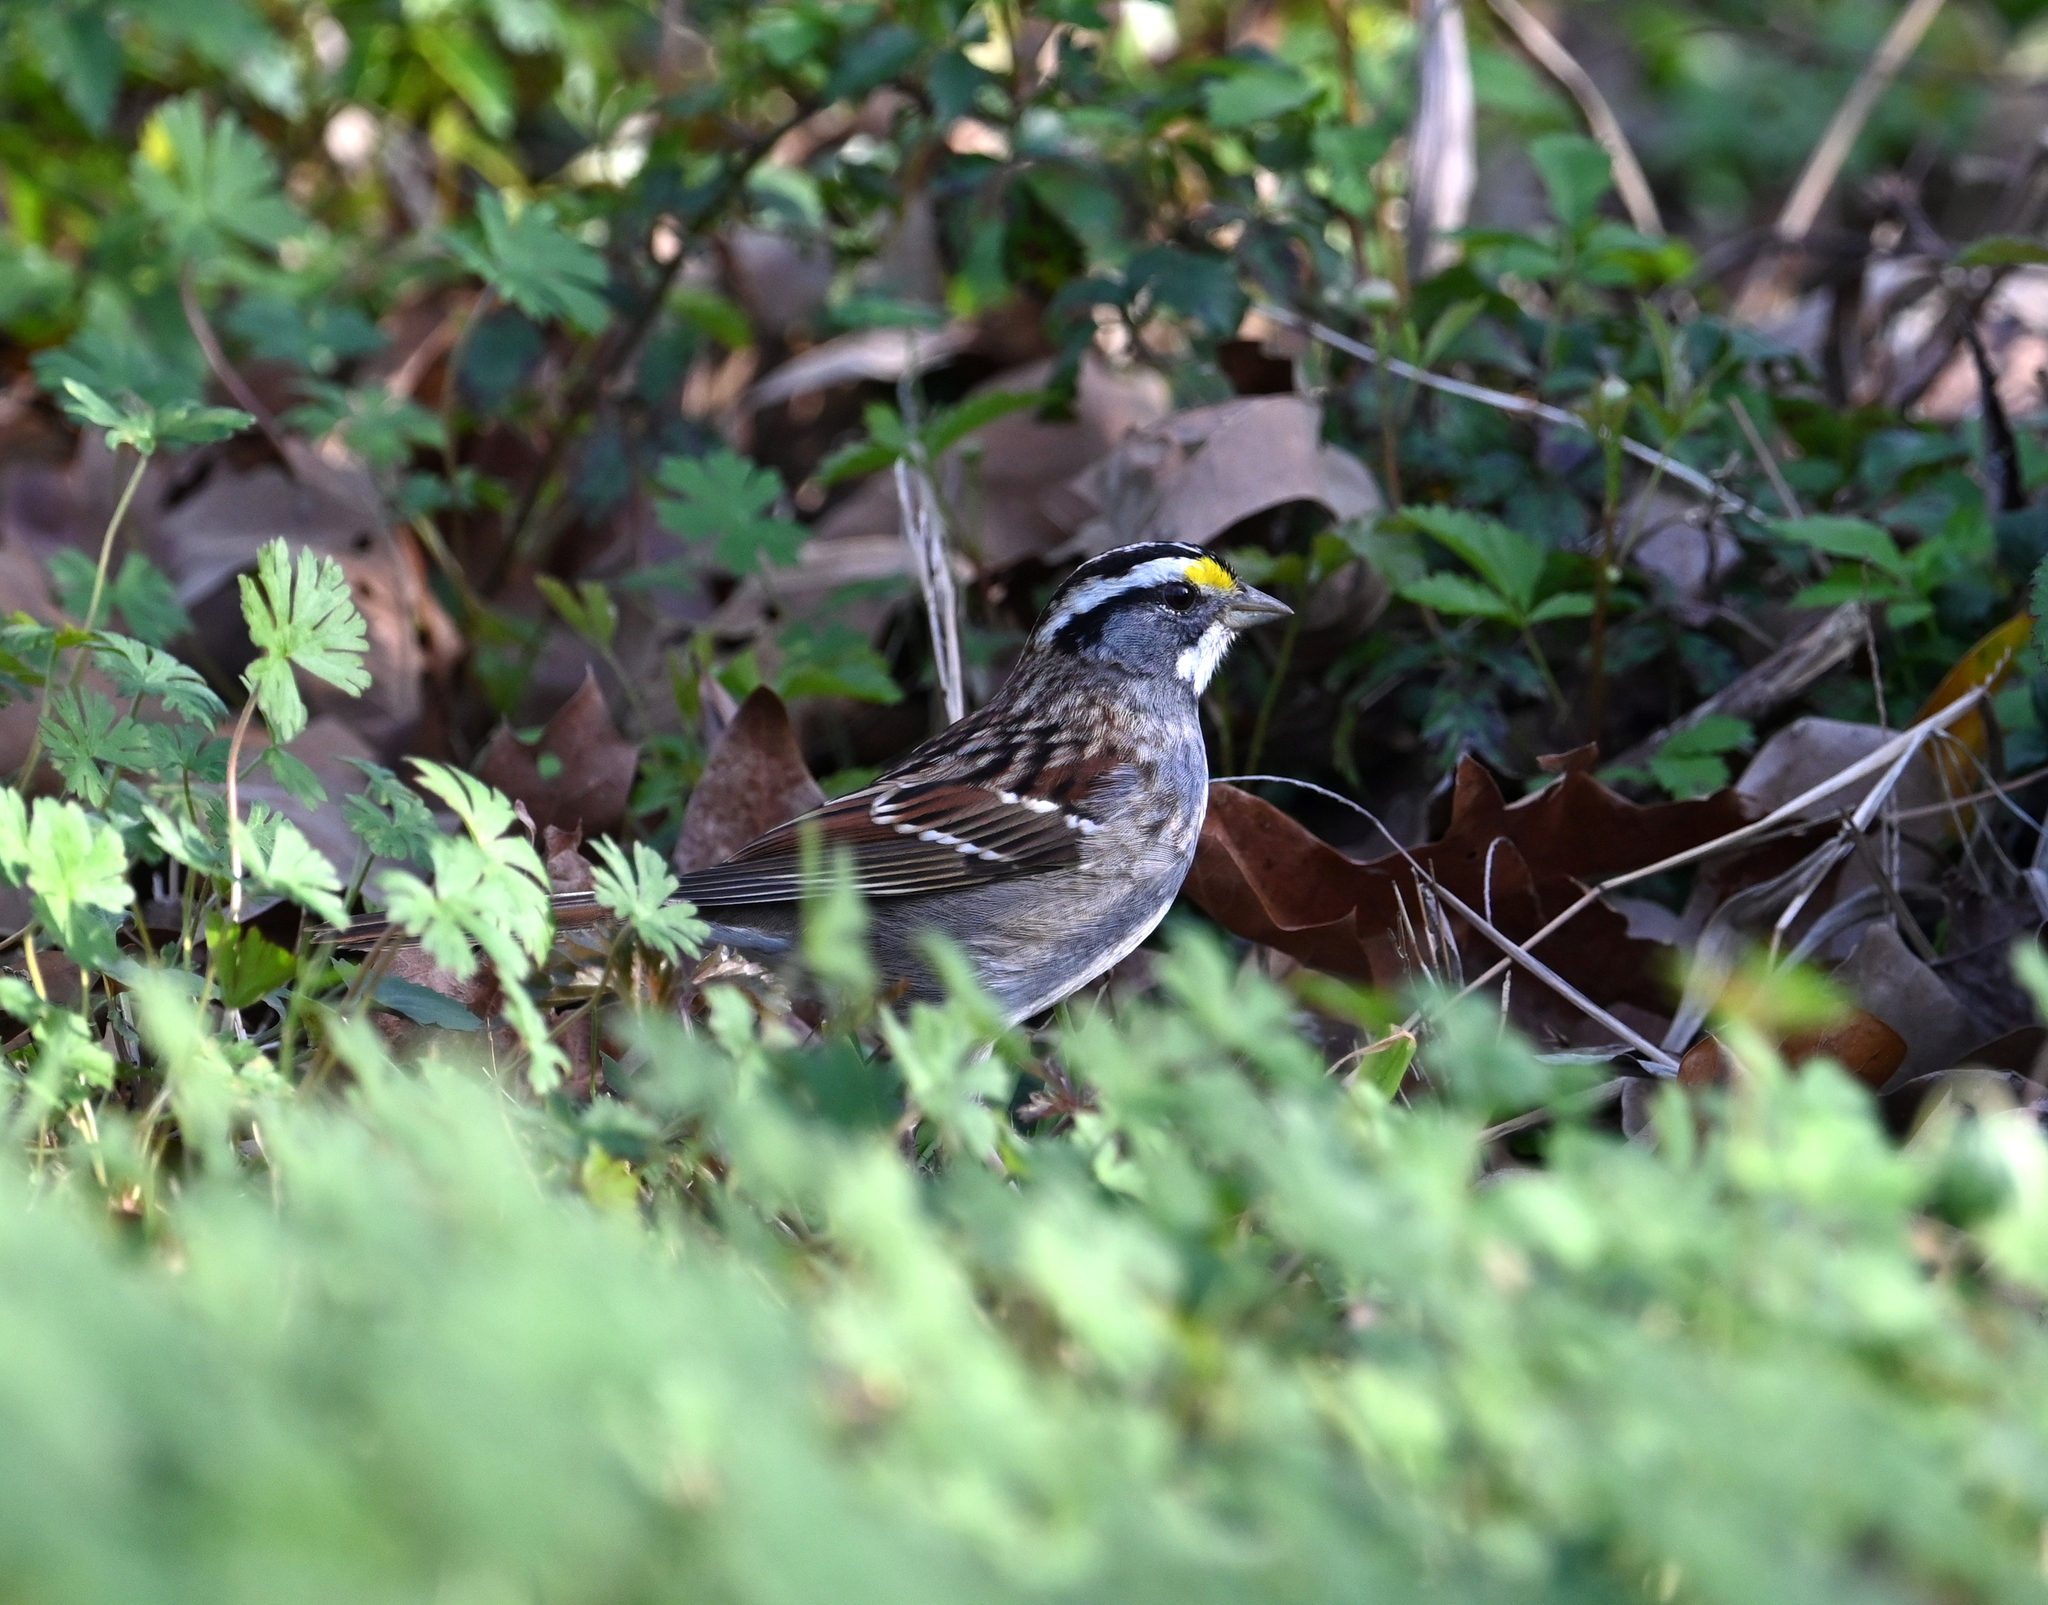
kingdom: Animalia
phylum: Chordata
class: Aves
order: Passeriformes
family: Passerellidae
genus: Zonotrichia
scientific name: Zonotrichia albicollis
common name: White-throated sparrow
